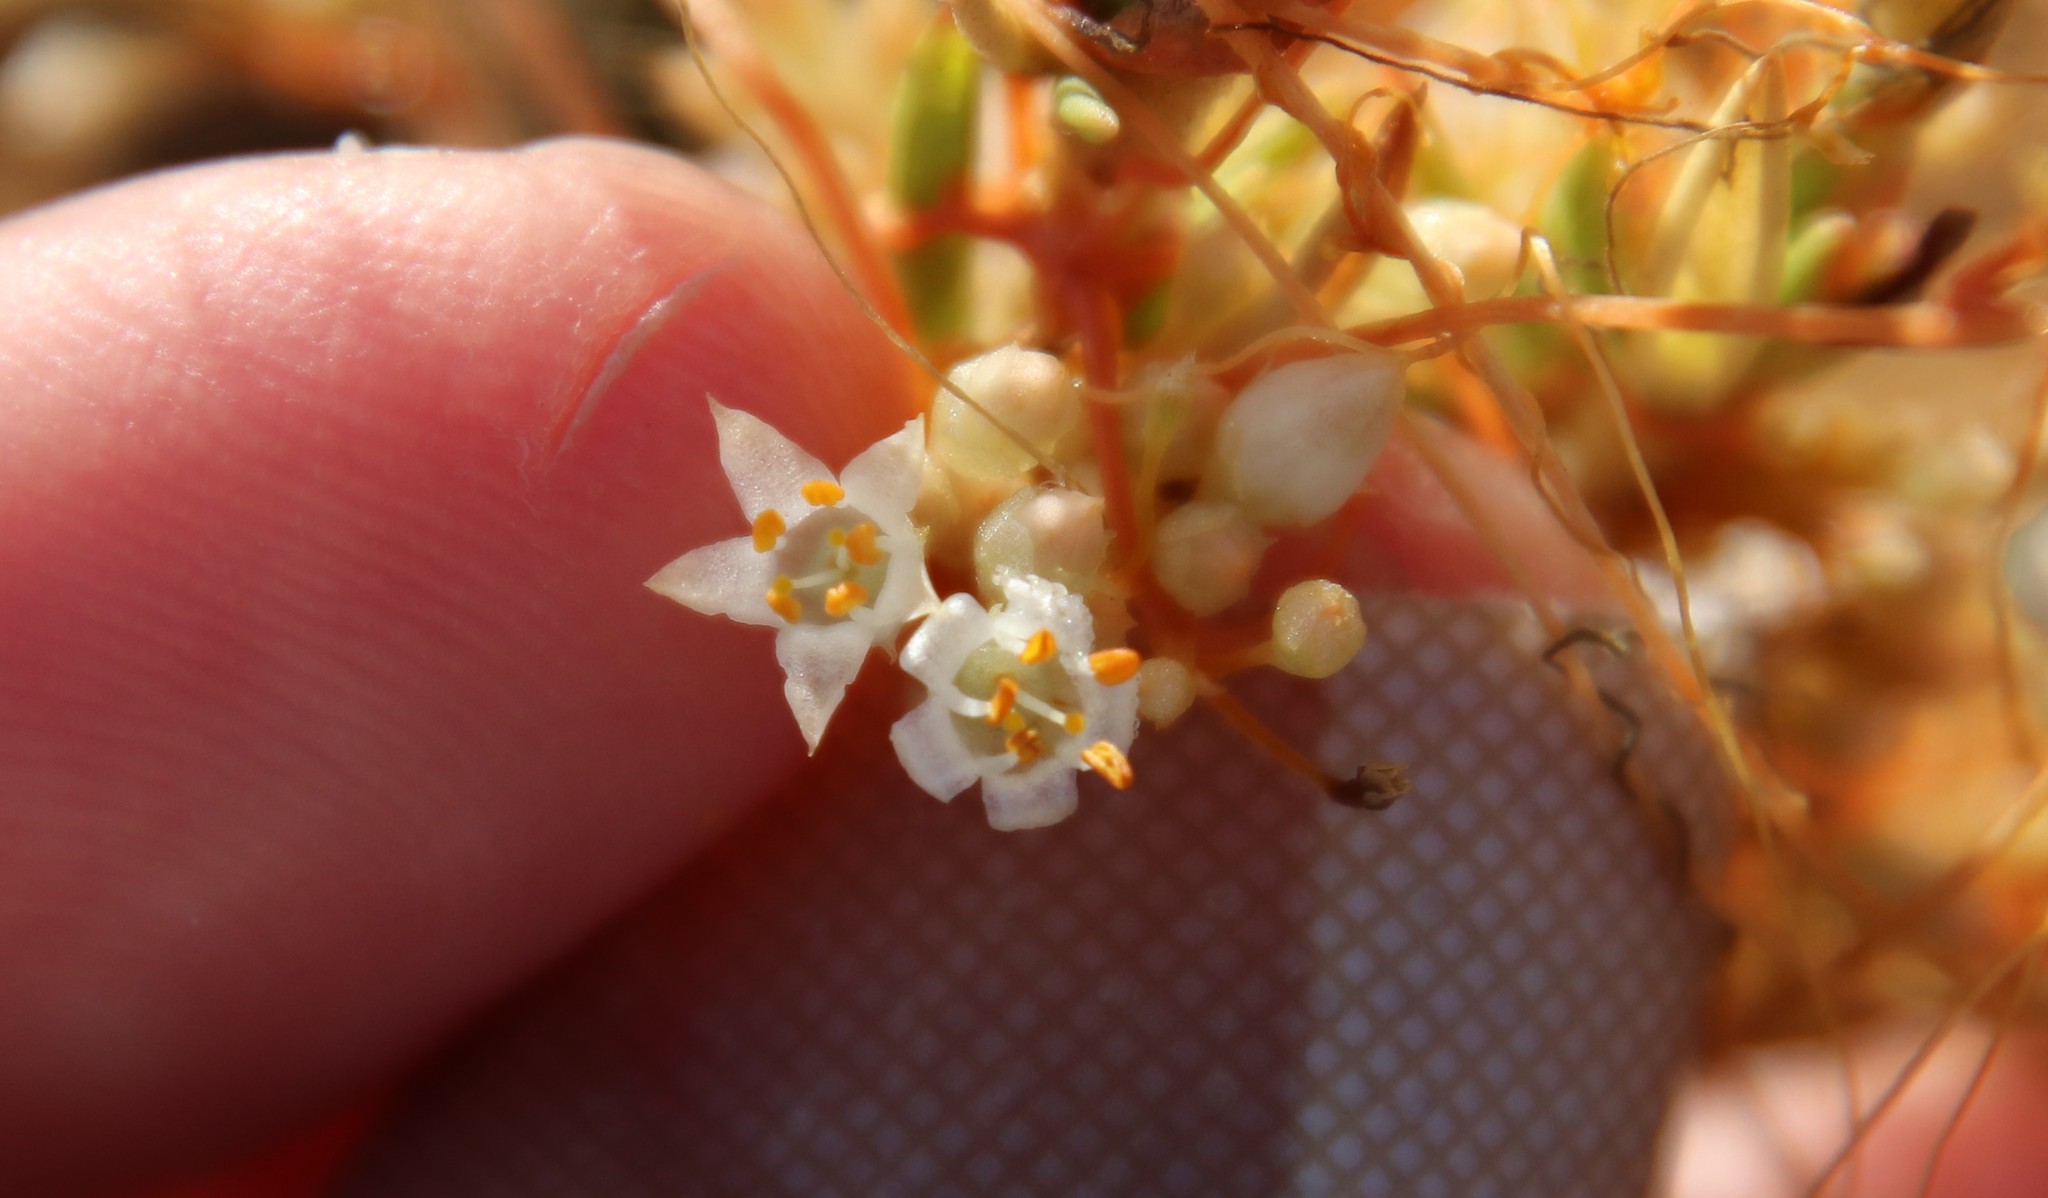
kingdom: Plantae
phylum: Tracheophyta
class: Magnoliopsida
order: Solanales
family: Convolvulaceae
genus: Cuscuta
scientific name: Cuscuta californica
